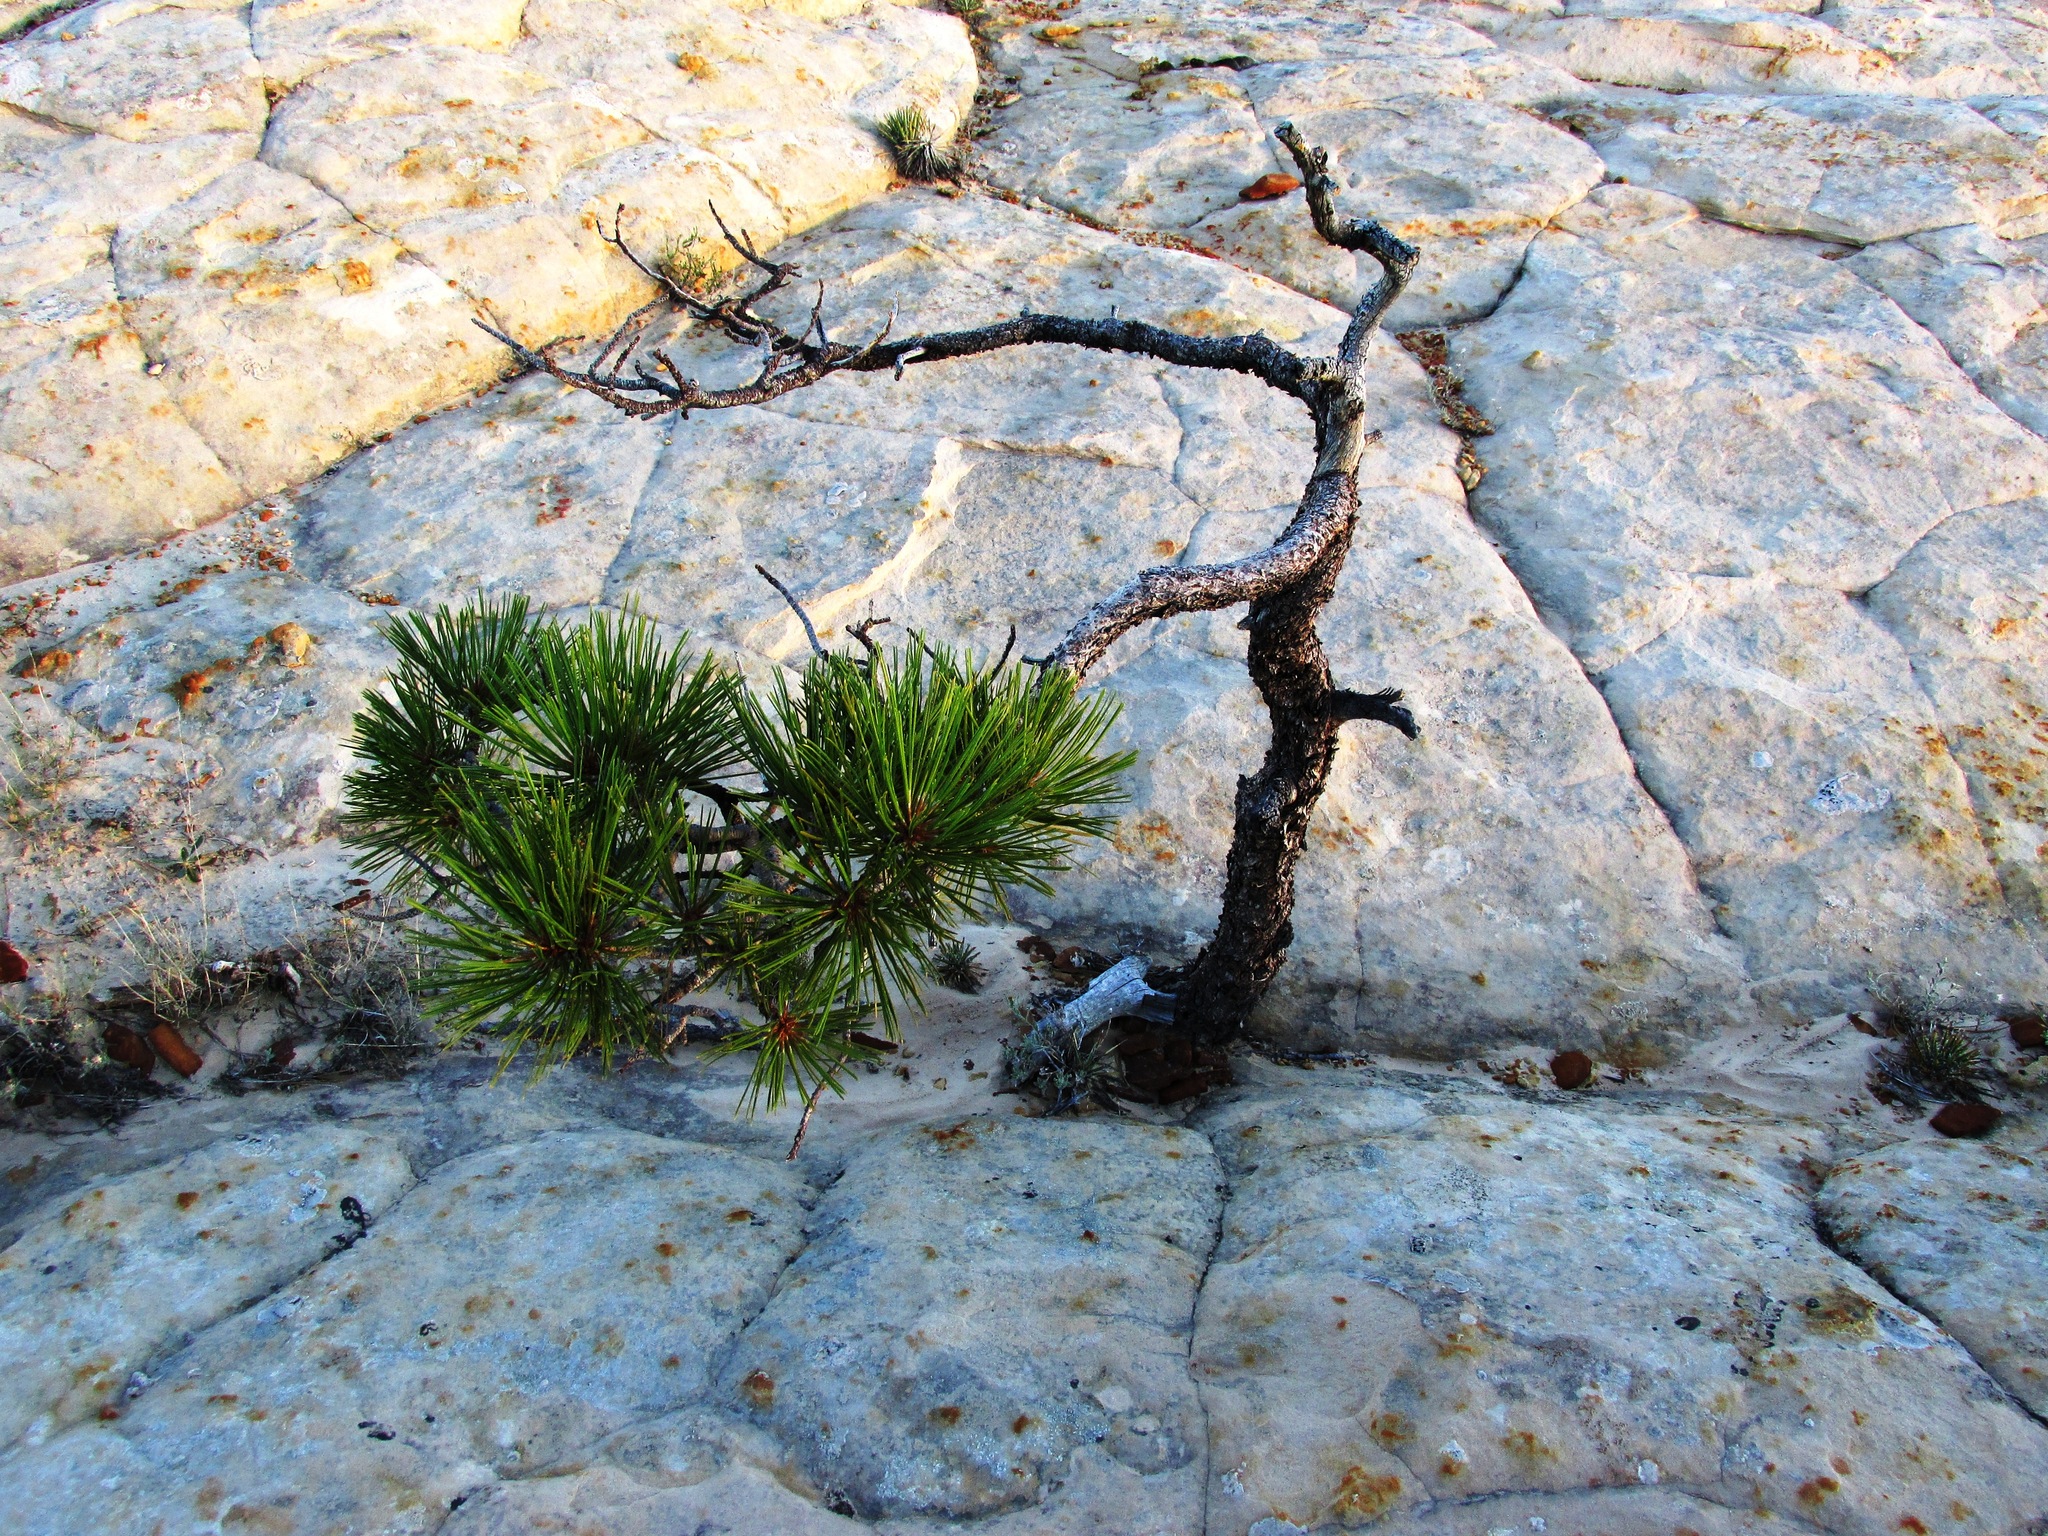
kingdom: Plantae
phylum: Tracheophyta
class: Pinopsida
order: Pinales
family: Pinaceae
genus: Pinus
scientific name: Pinus ponderosa
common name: Western yellow-pine
